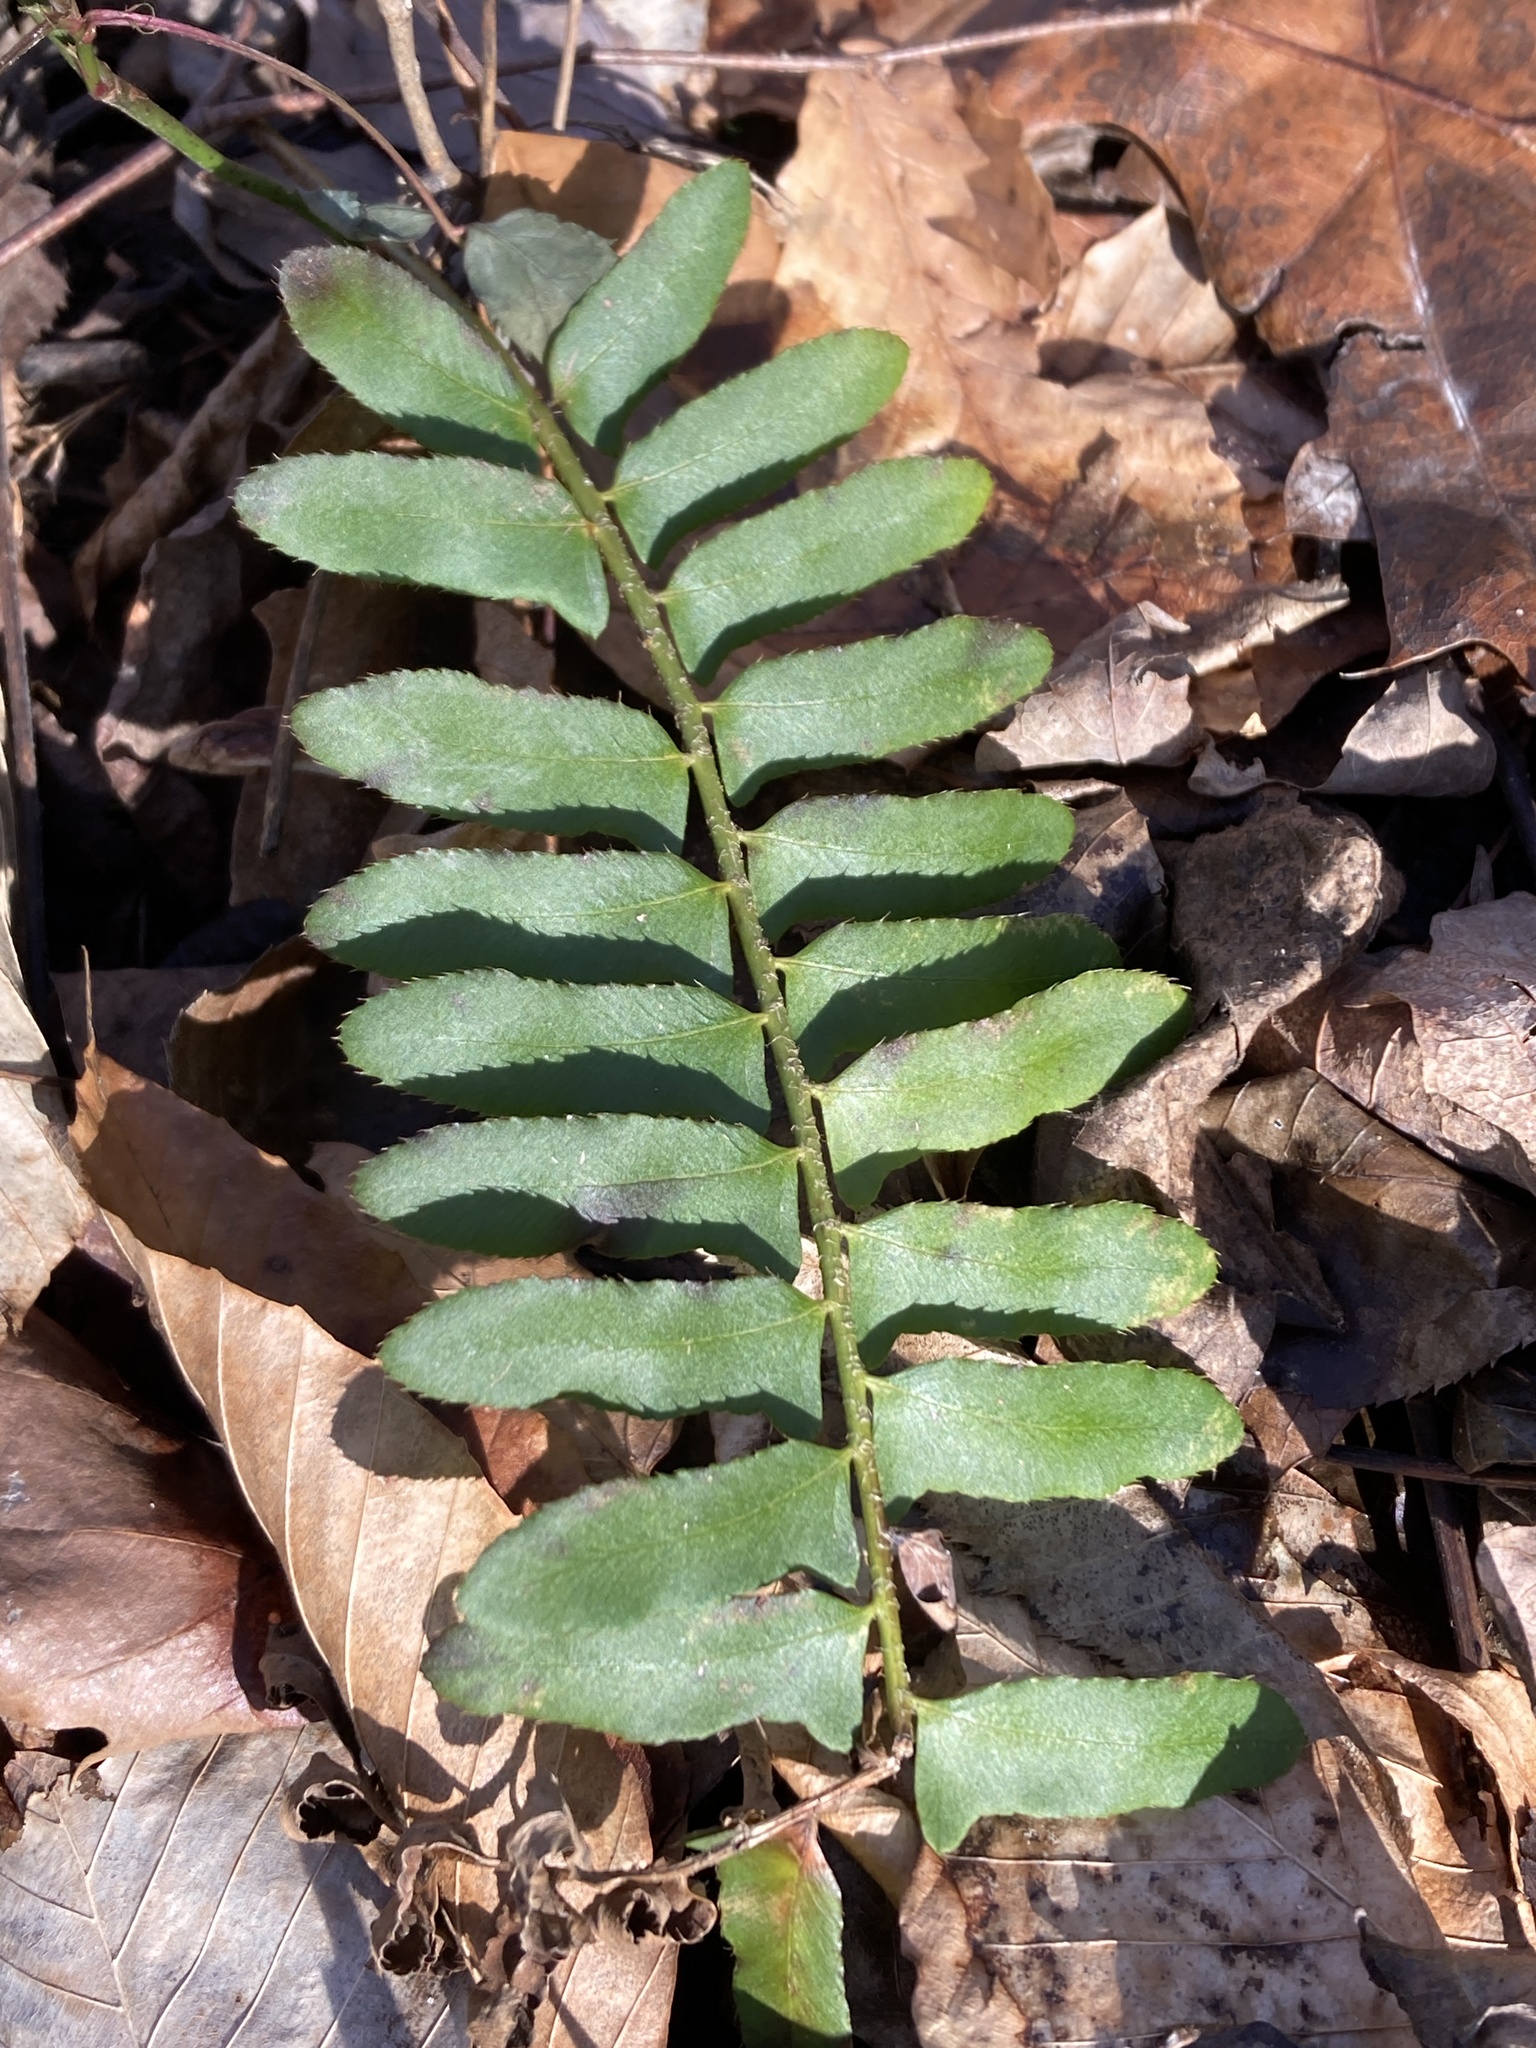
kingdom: Plantae
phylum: Tracheophyta
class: Polypodiopsida
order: Polypodiales
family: Dryopteridaceae
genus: Polystichum
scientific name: Polystichum acrostichoides
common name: Christmas fern
